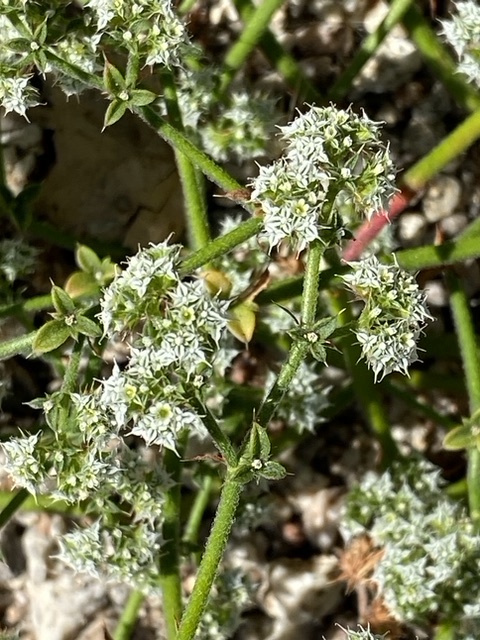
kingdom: Plantae
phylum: Tracheophyta
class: Magnoliopsida
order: Caryophyllales
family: Polygonaceae
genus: Chorizanthe
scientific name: Chorizanthe diffusa
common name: Diffuse spineflower
